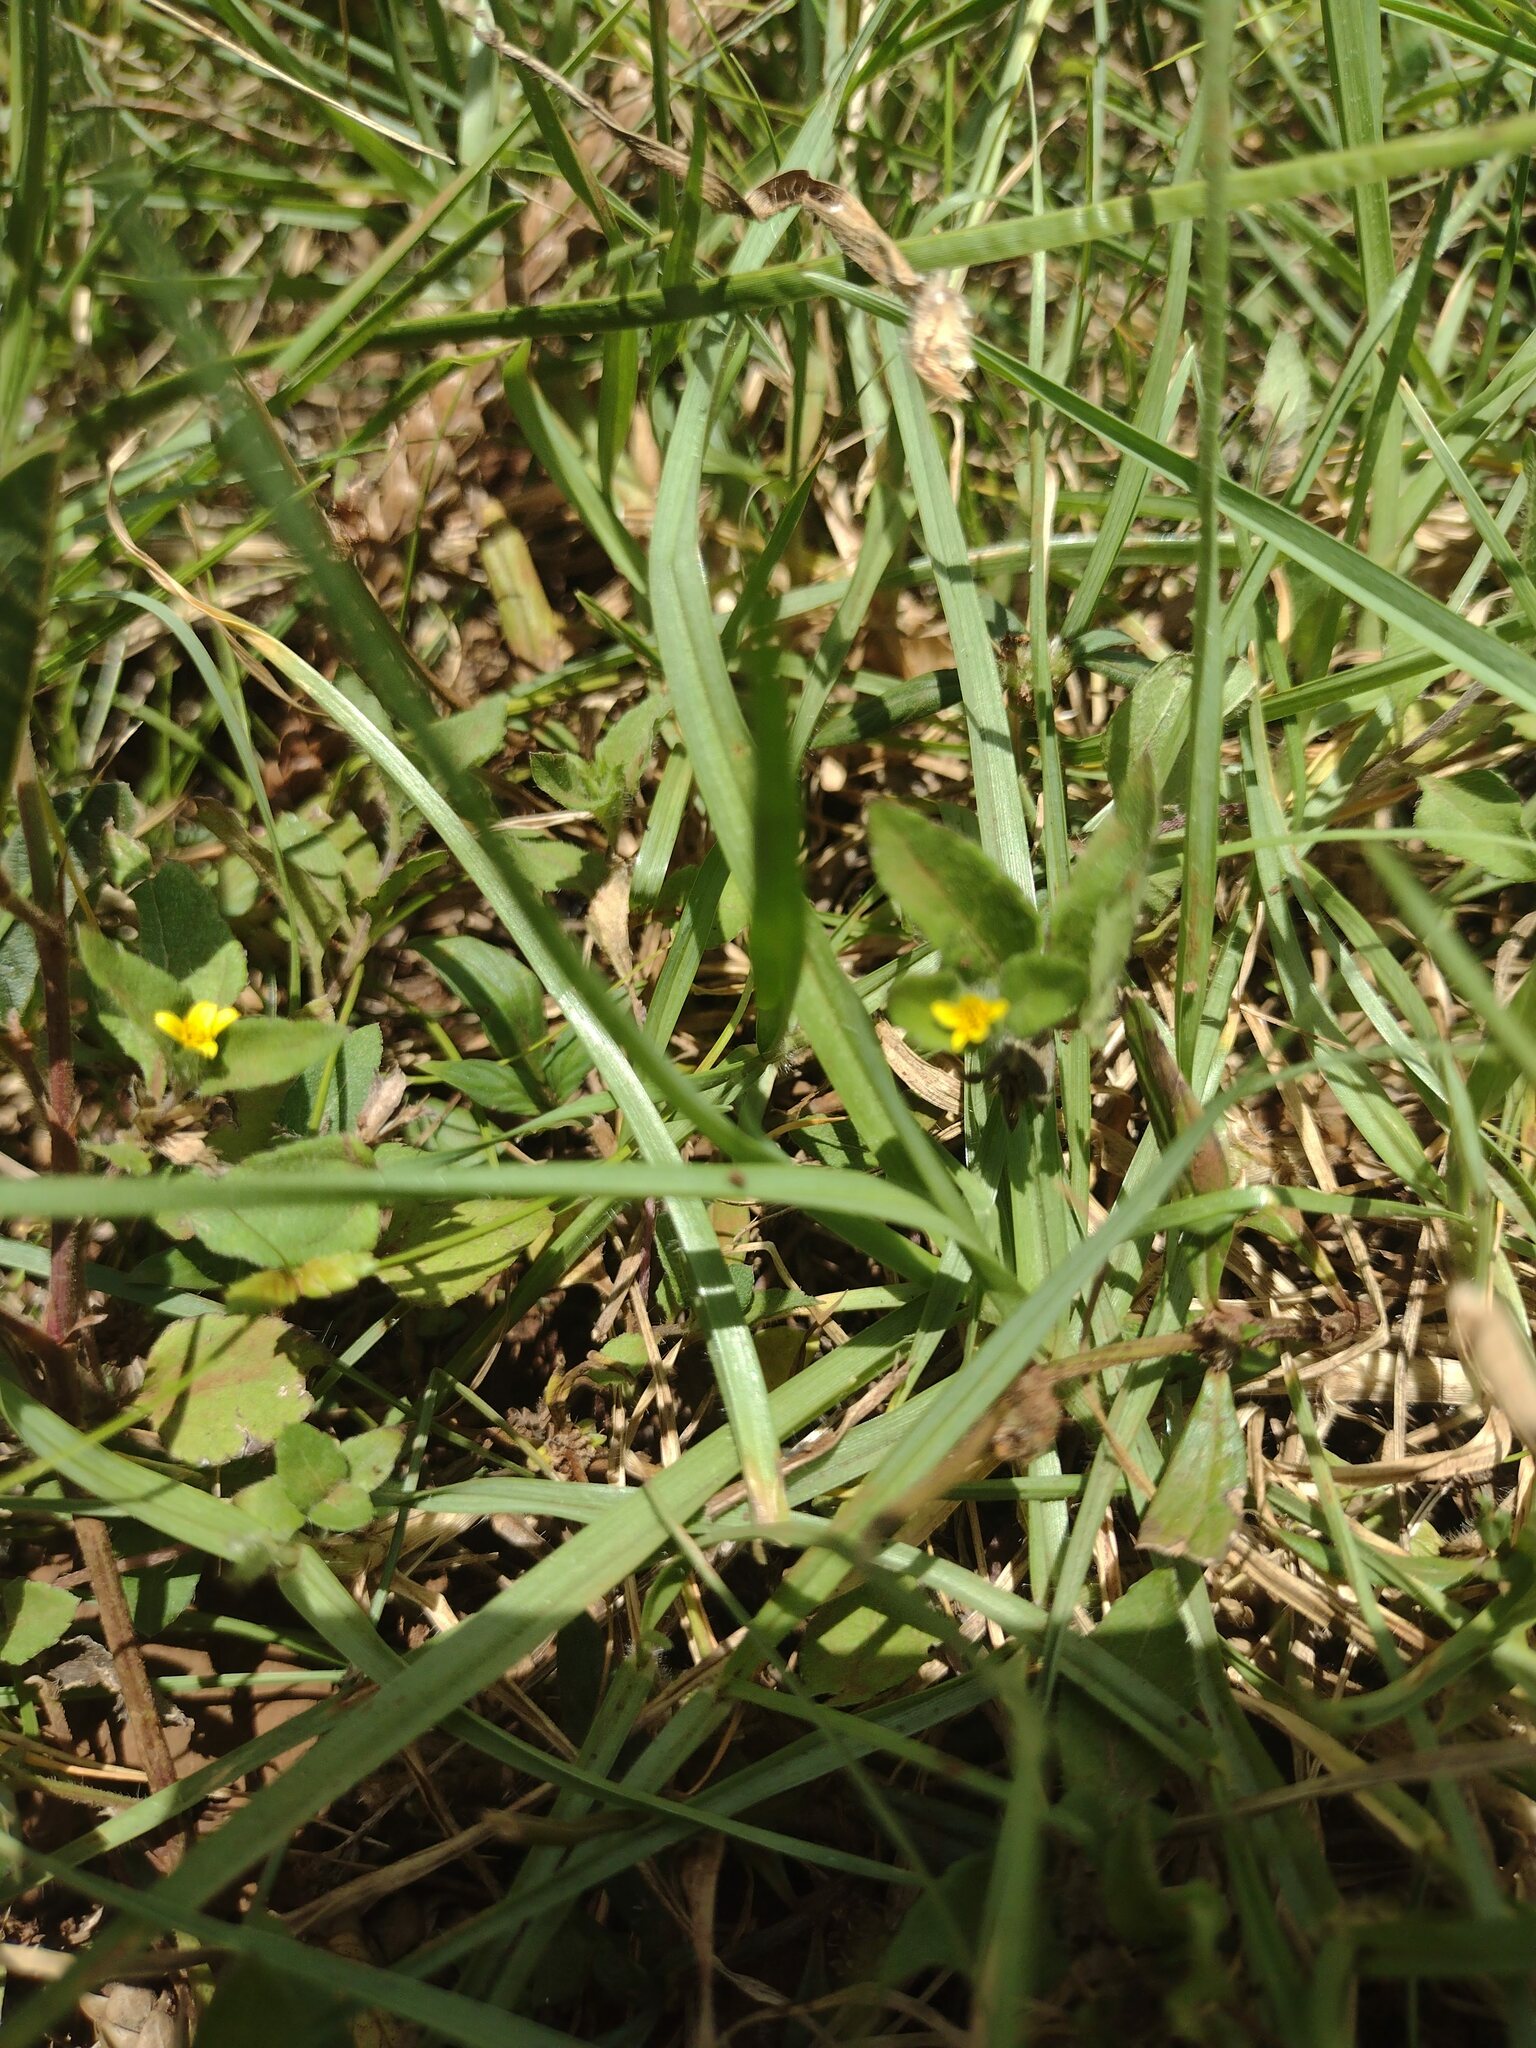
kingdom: Plantae
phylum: Tracheophyta
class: Magnoliopsida
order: Asterales
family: Asteraceae
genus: Calyptocarpus
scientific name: Calyptocarpus vialis
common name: Straggler daisy
